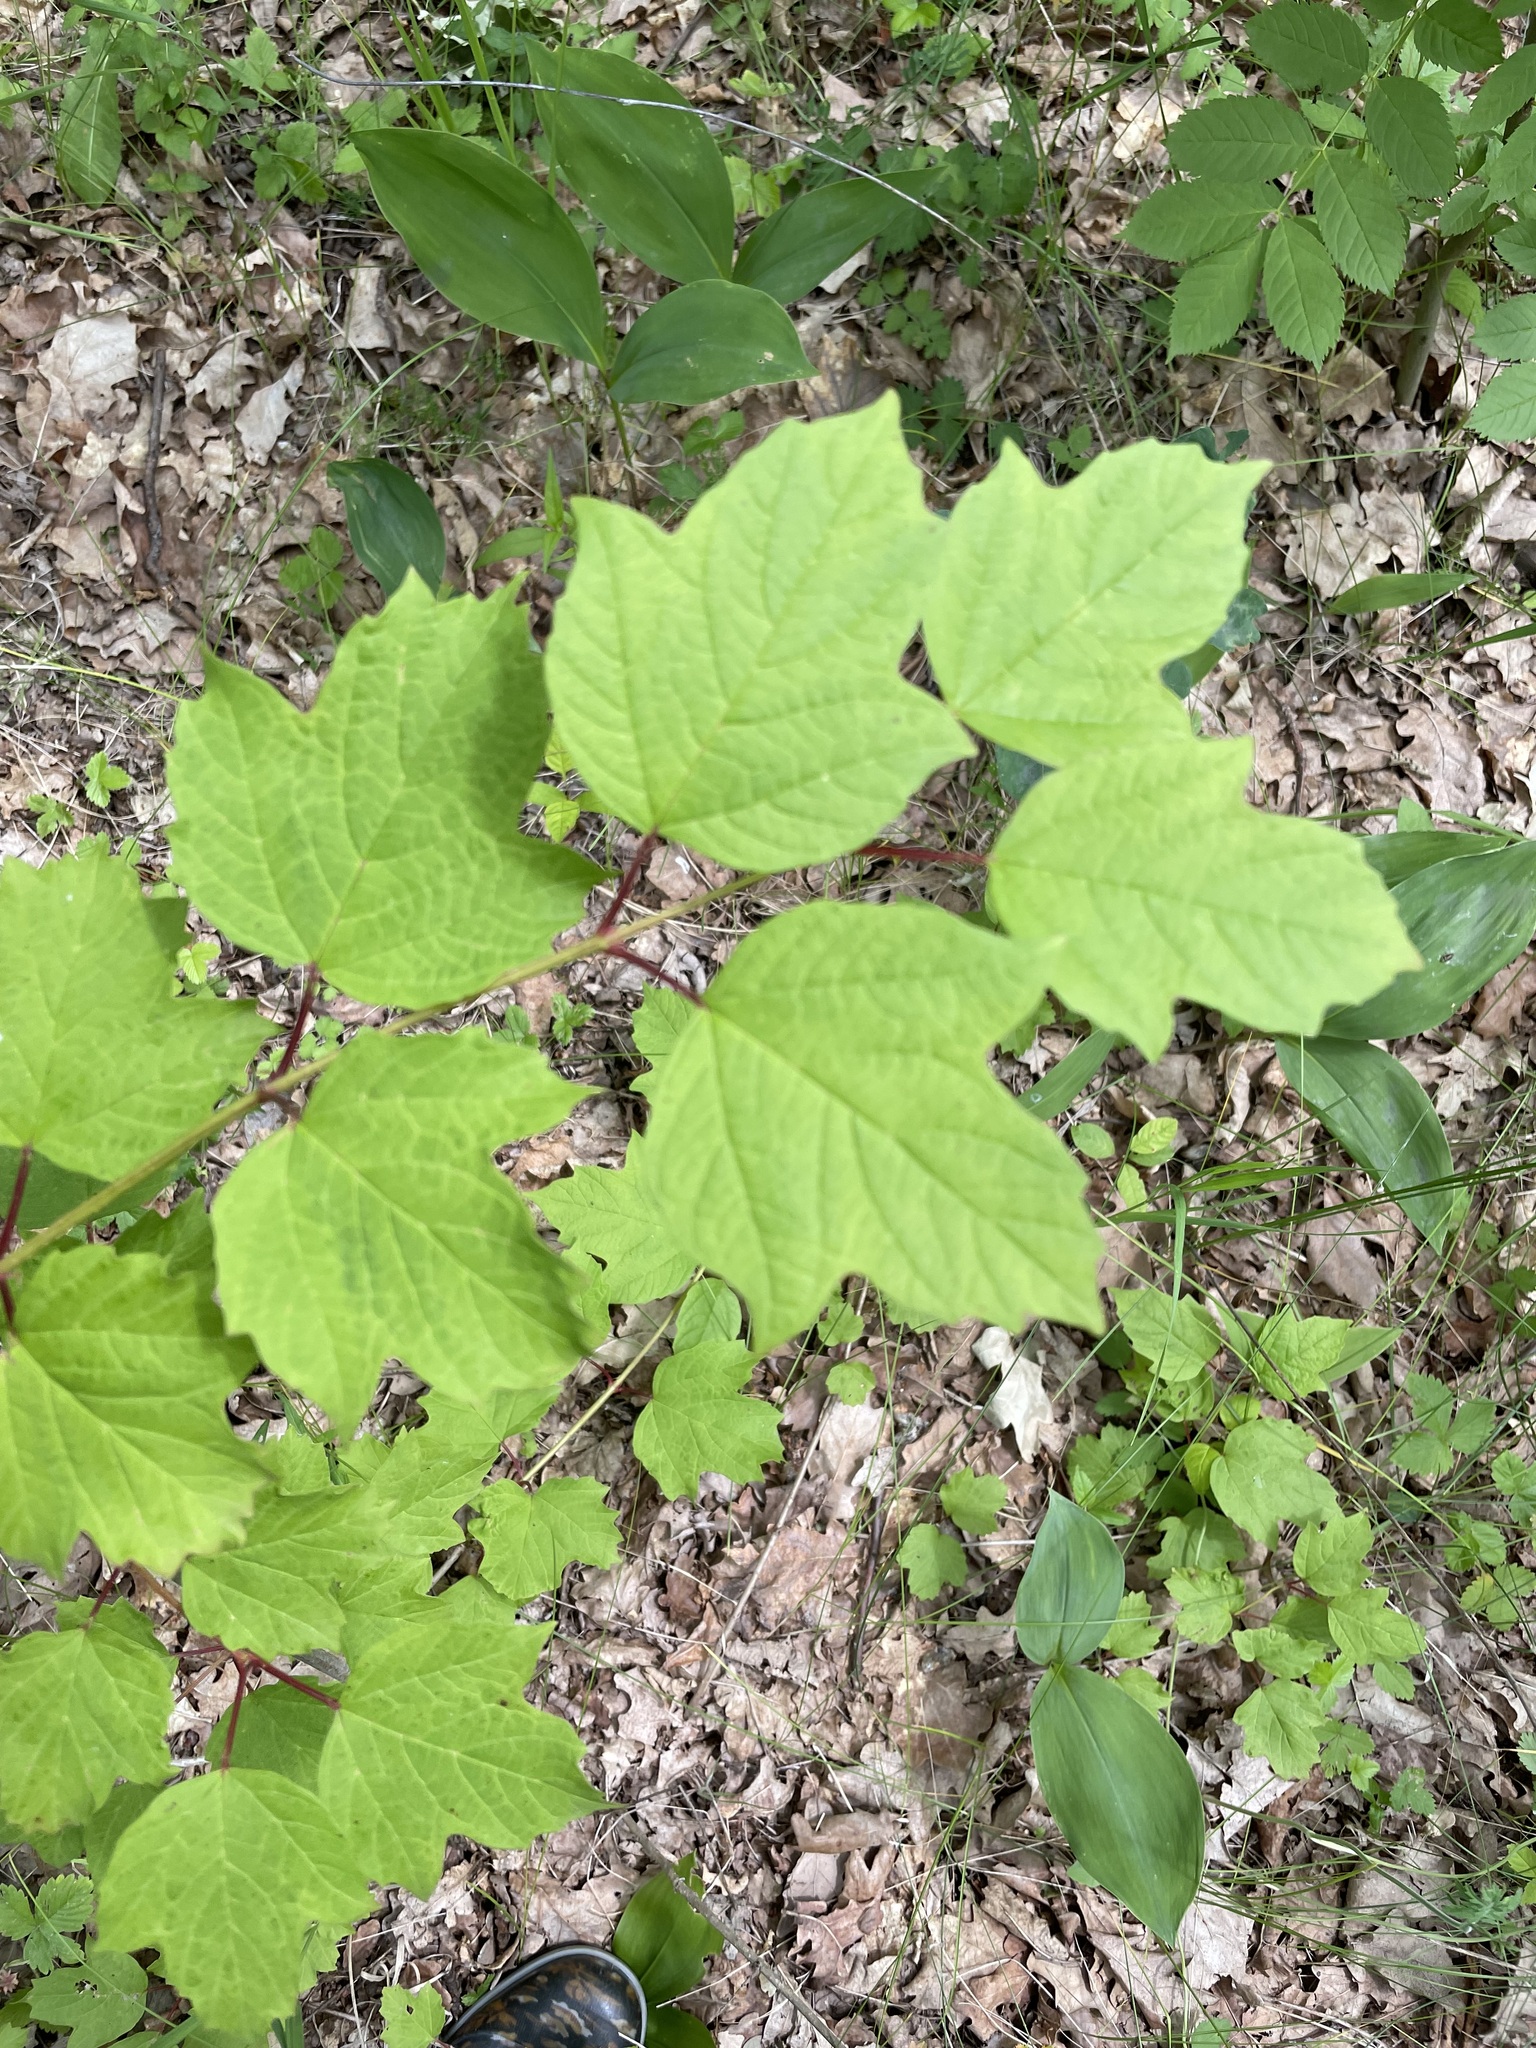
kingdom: Plantae
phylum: Tracheophyta
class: Magnoliopsida
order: Dipsacales
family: Viburnaceae
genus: Viburnum
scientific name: Viburnum opulus
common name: Guelder-rose
